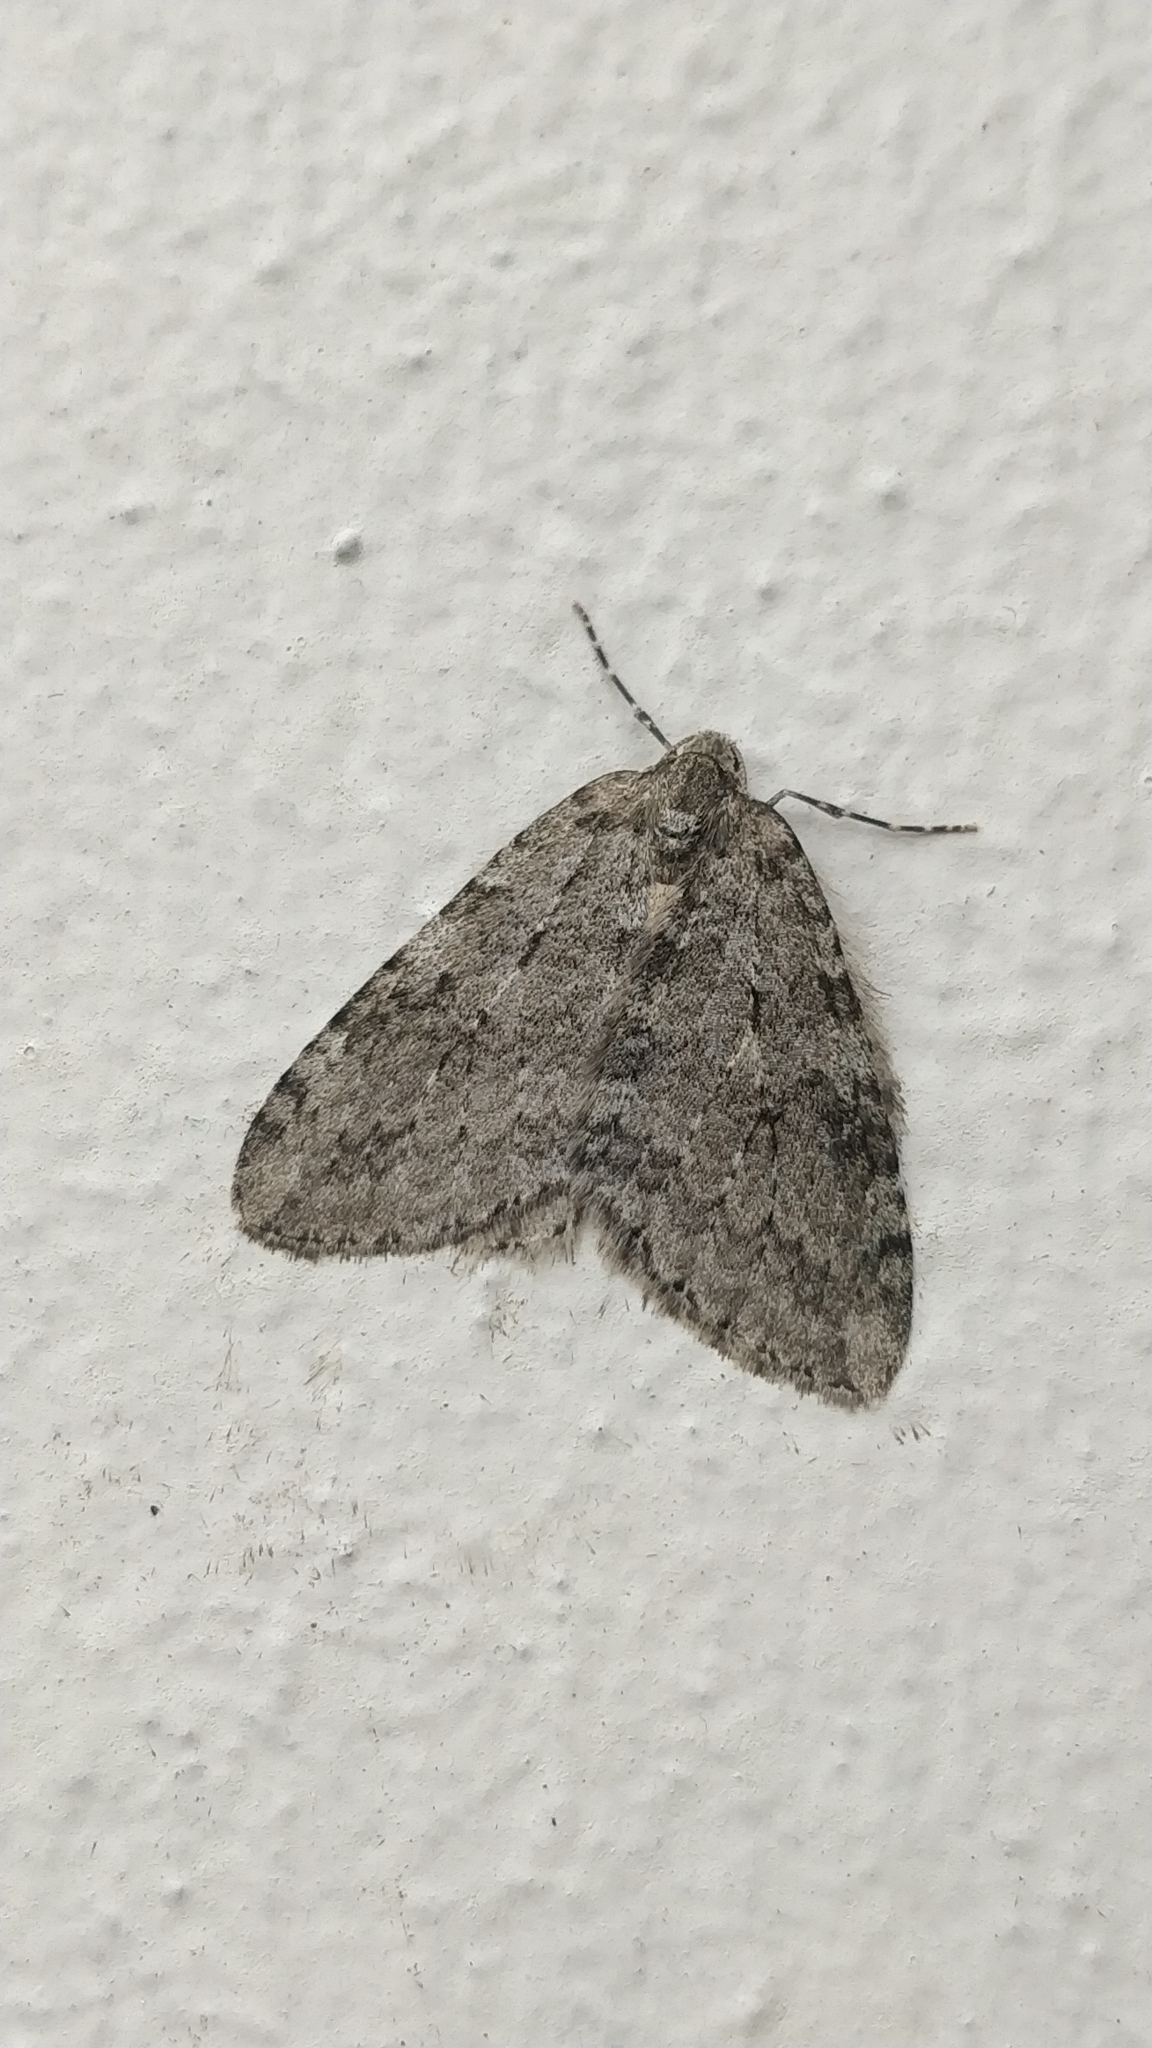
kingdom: Animalia
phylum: Arthropoda
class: Insecta
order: Lepidoptera
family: Geometridae
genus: Epirrita
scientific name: Epirrita
